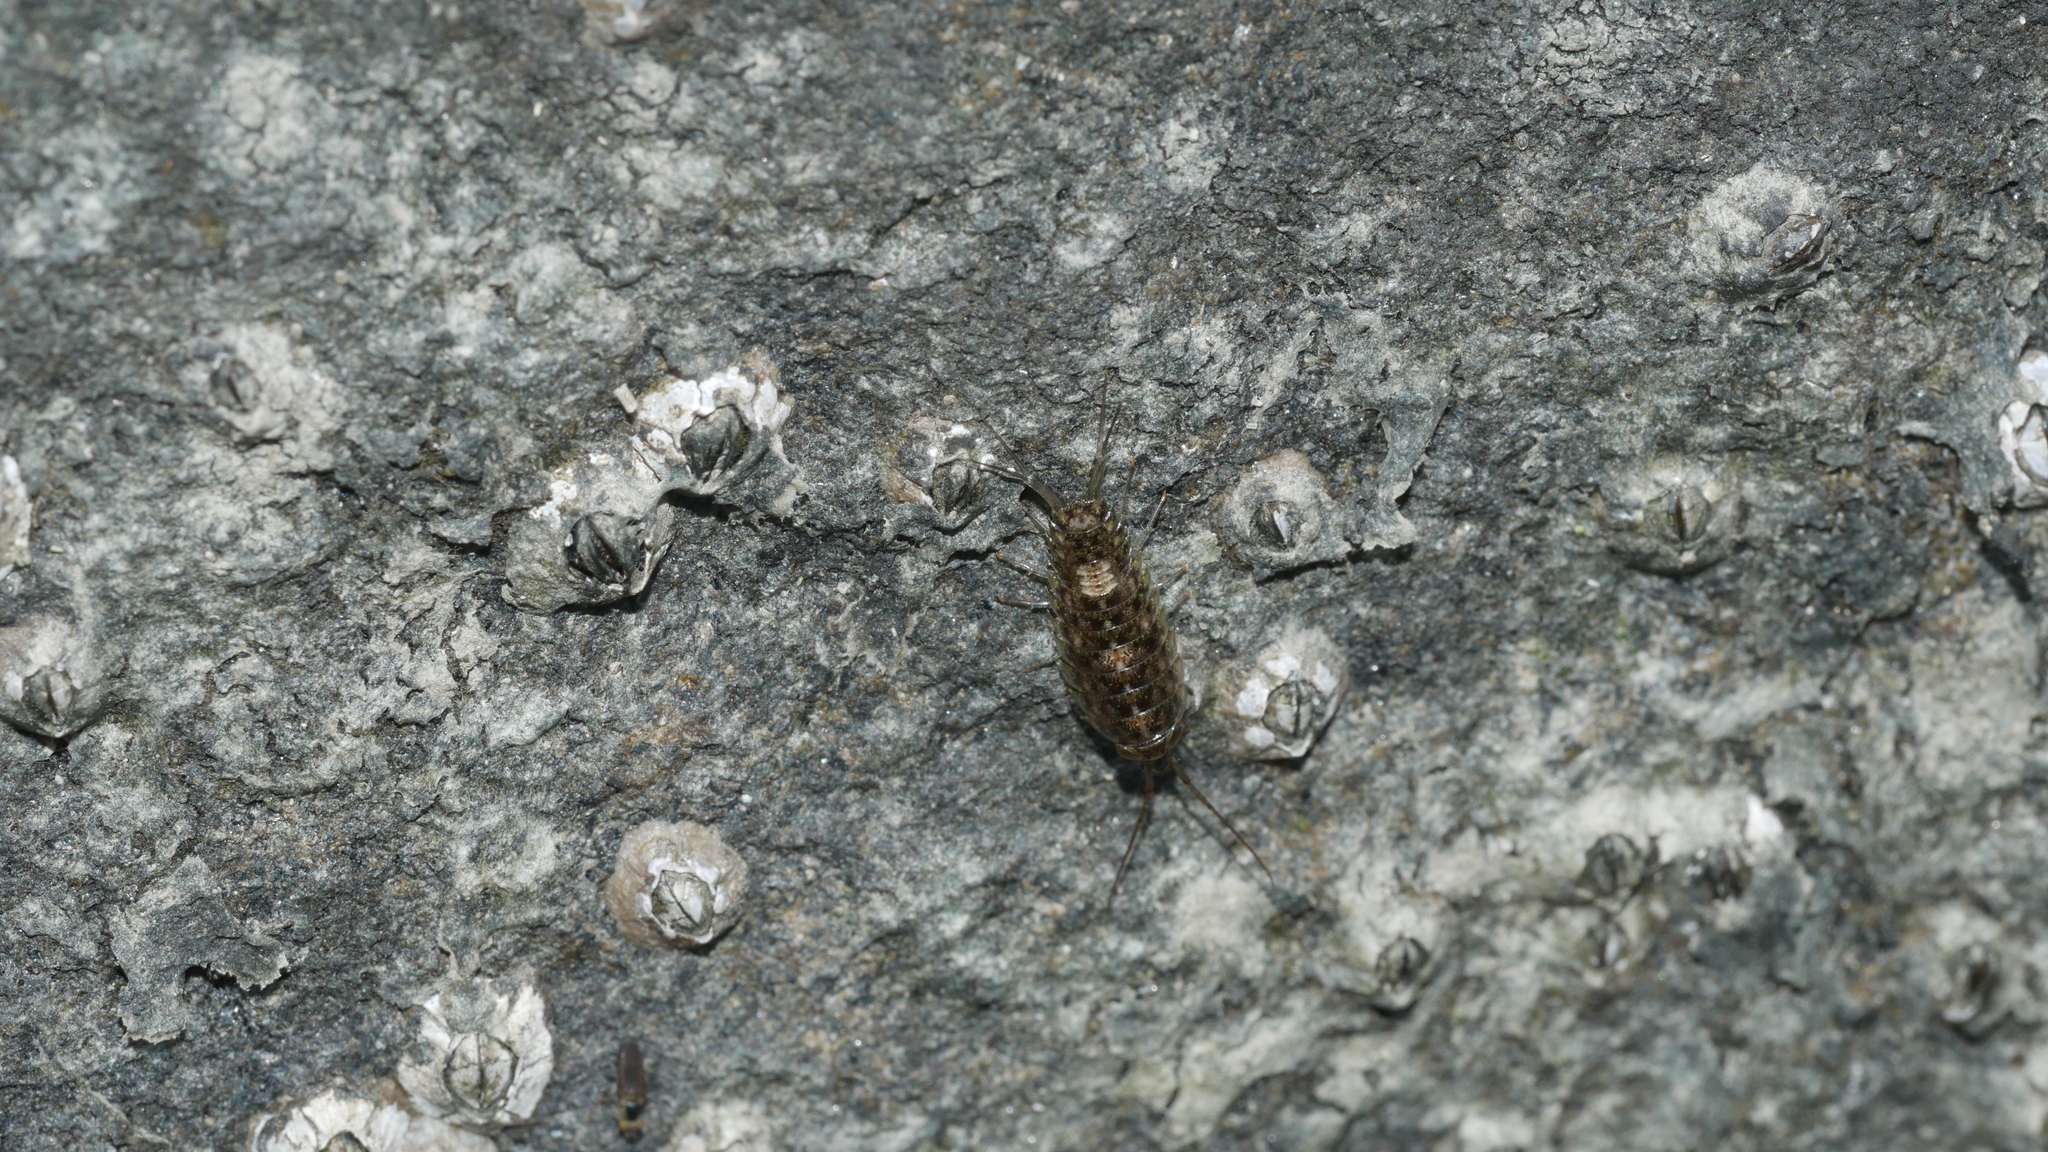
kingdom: Animalia
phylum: Arthropoda
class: Malacostraca
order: Isopoda
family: Ligiidae
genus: Ligia
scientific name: Ligia exotica
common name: Wharf roach
